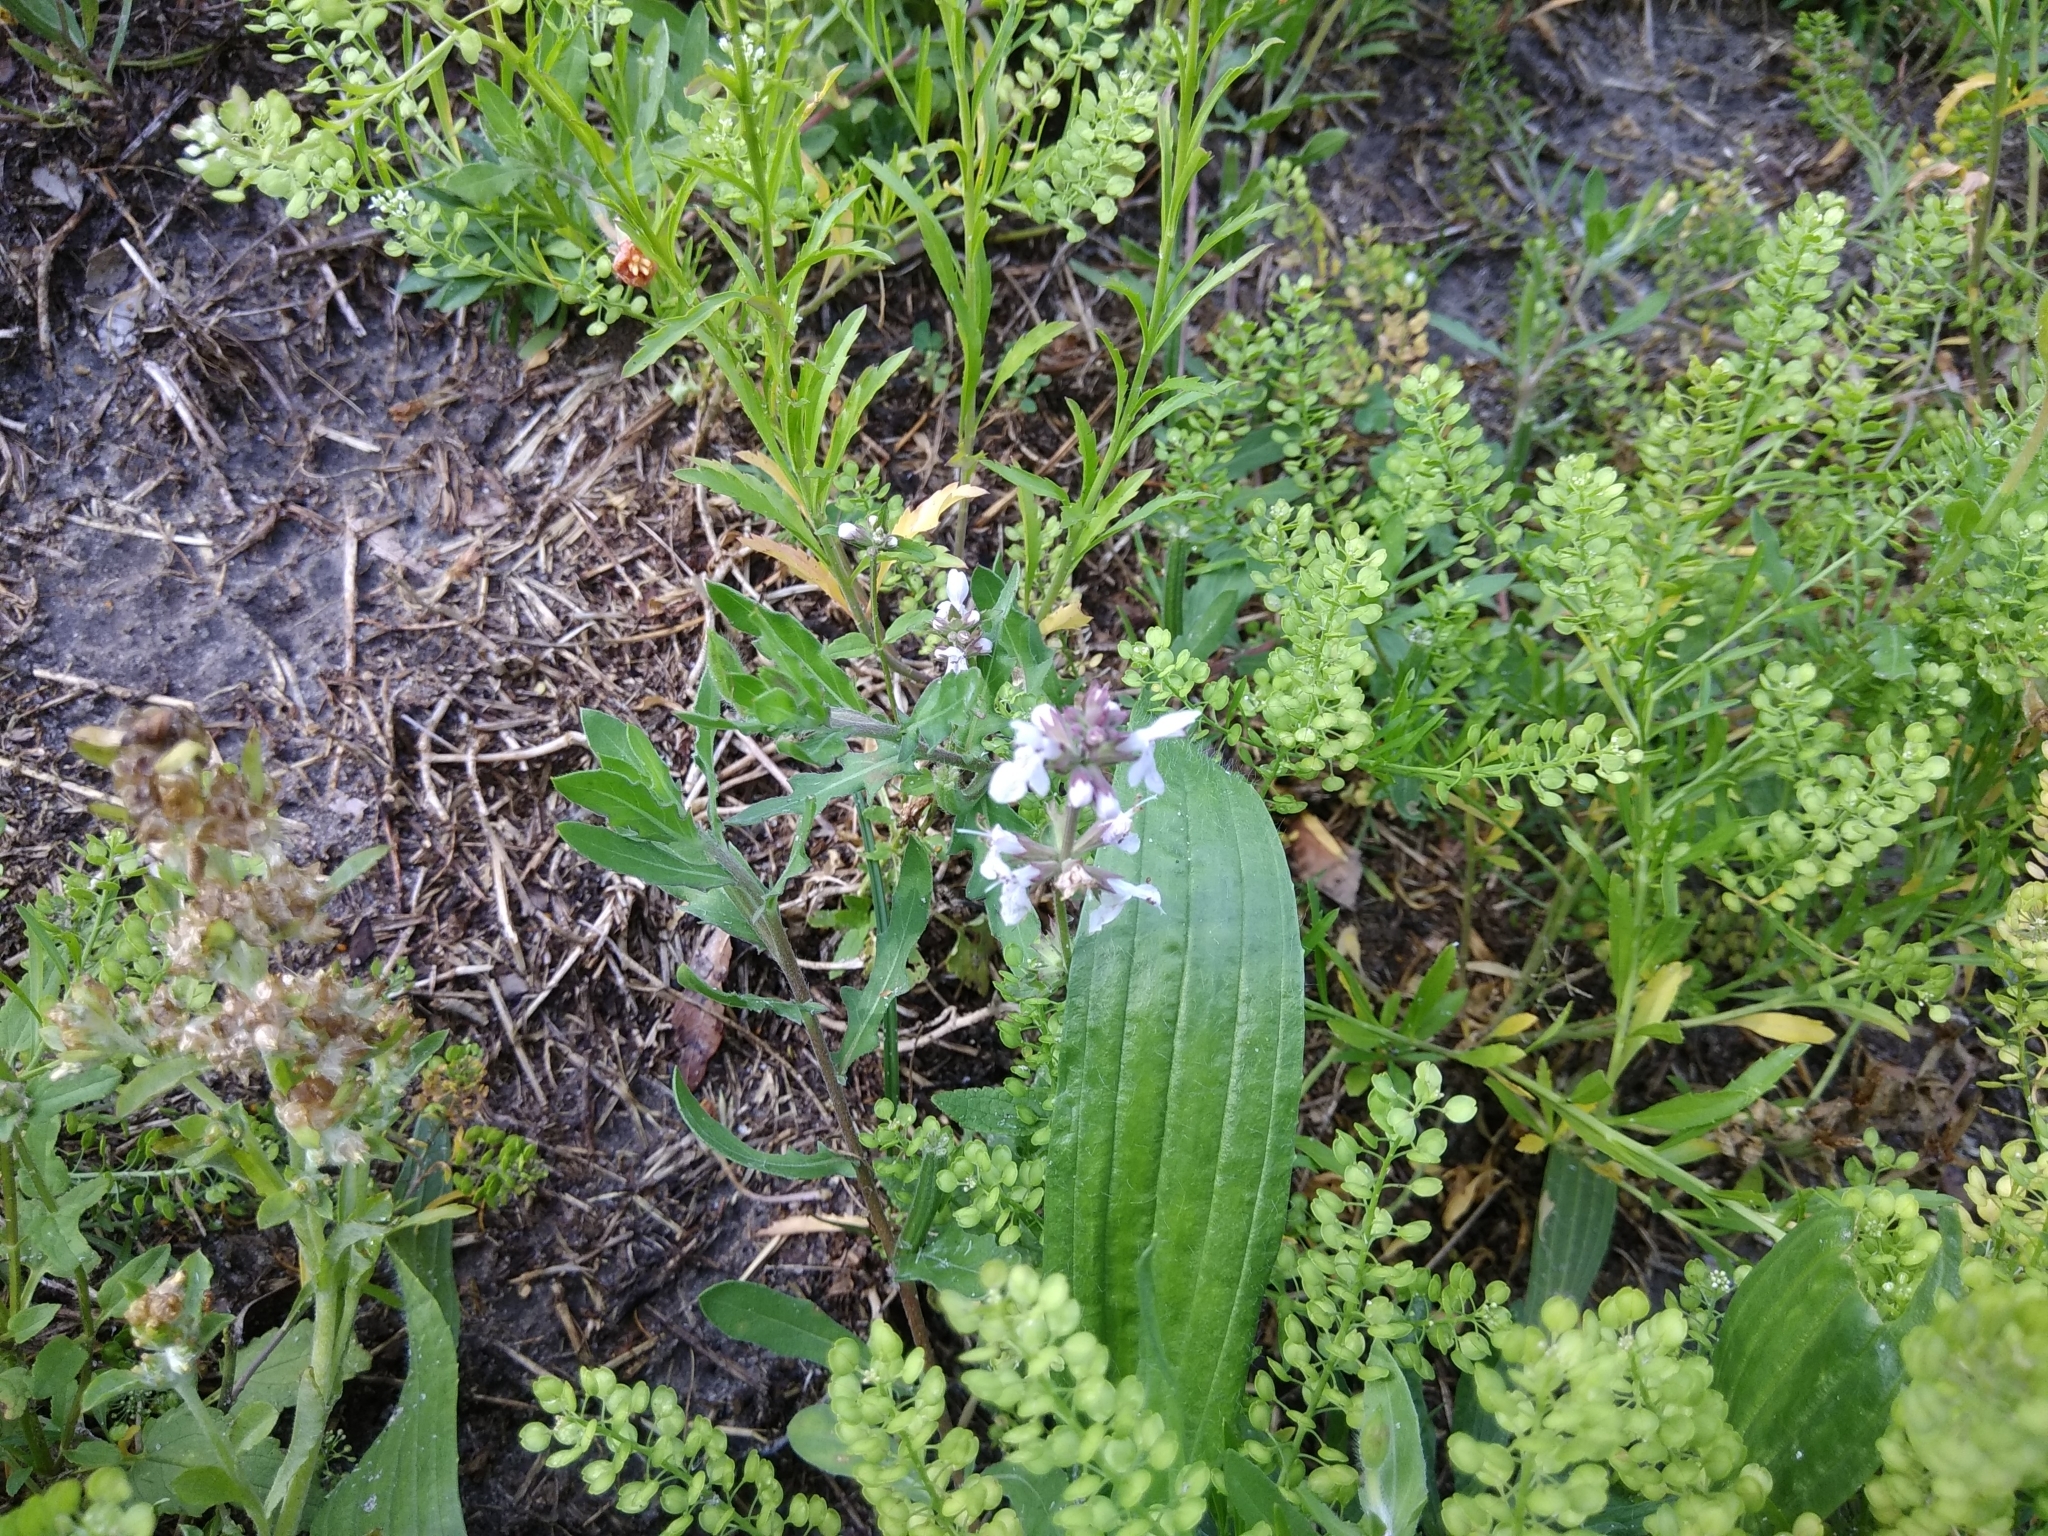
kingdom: Plantae
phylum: Tracheophyta
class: Magnoliopsida
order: Lamiales
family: Lamiaceae
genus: Stachys
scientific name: Stachys floridana
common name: Florida betony
